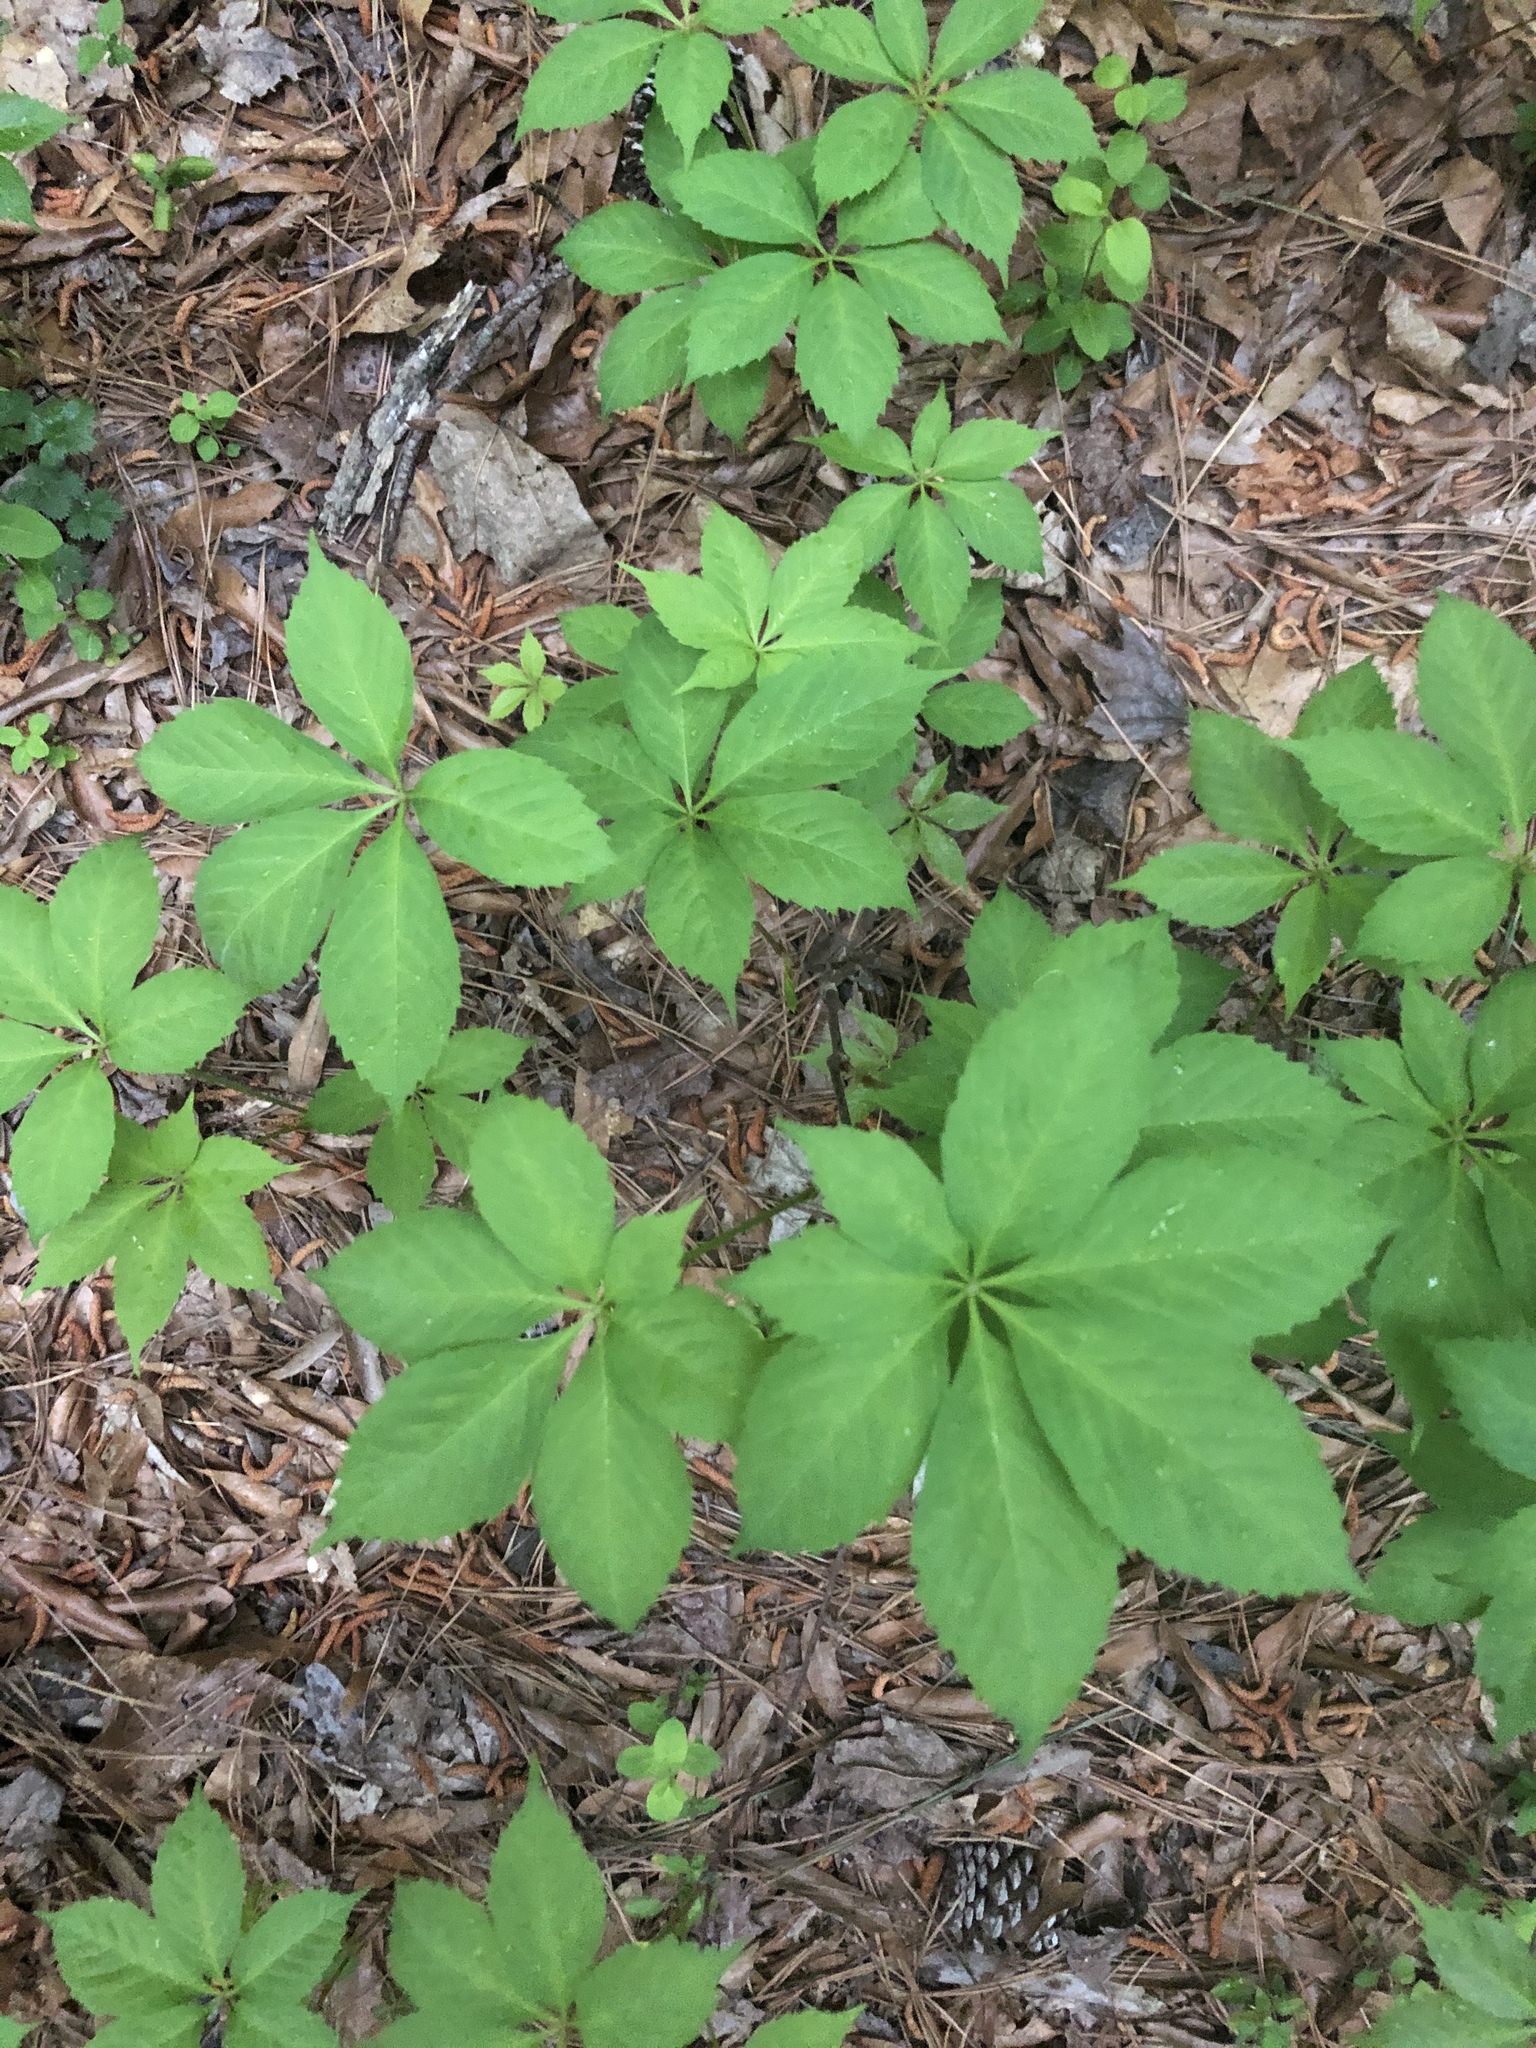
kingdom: Plantae
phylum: Tracheophyta
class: Magnoliopsida
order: Vitales
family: Vitaceae
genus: Parthenocissus
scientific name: Parthenocissus quinquefolia
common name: Virginia-creeper
